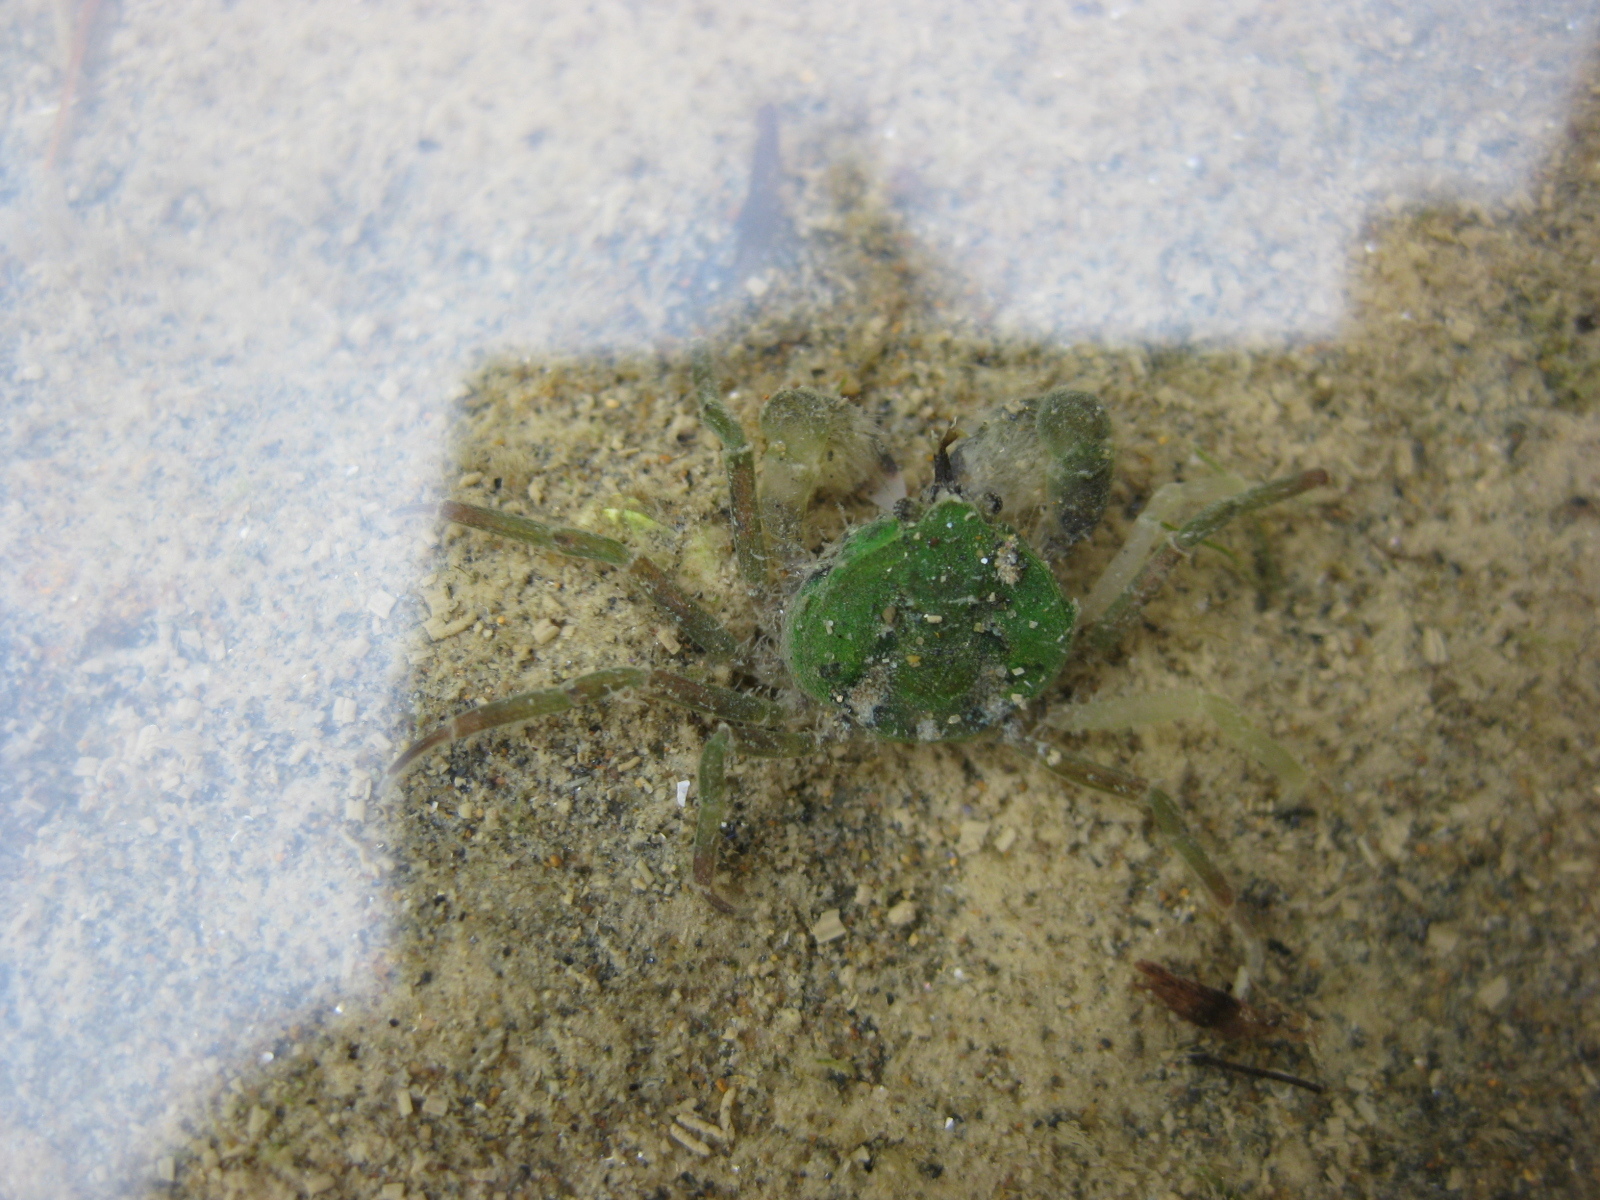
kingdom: Animalia
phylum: Arthropoda
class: Malacostraca
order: Decapoda
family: Hymenosomatidae
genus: Halicarcinus
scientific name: Halicarcinus varius
